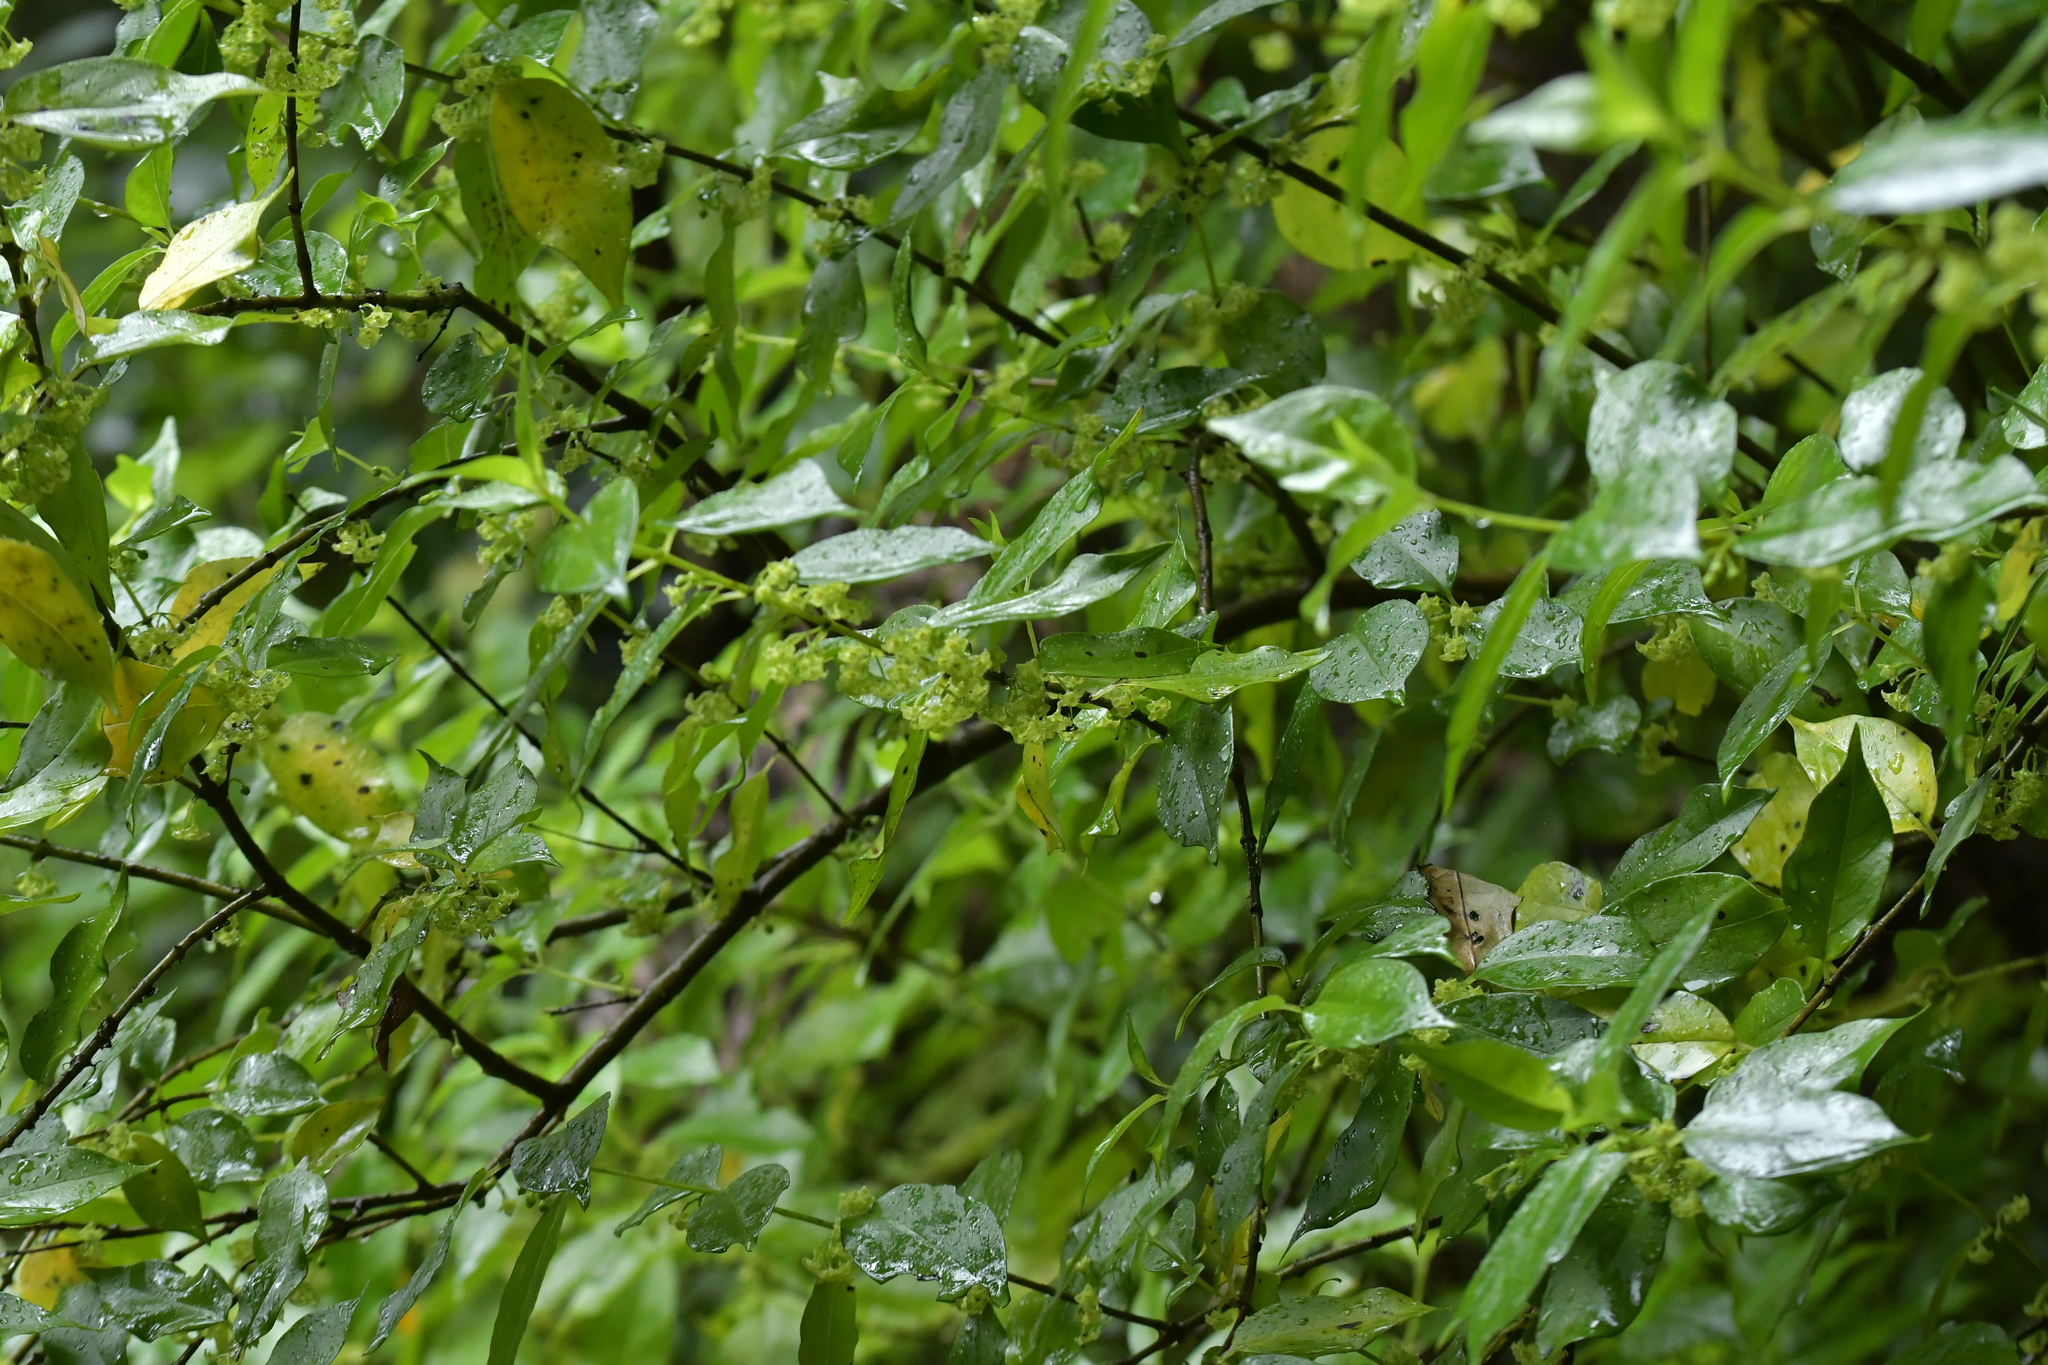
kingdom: Plantae
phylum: Tracheophyta
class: Magnoliopsida
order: Gentianales
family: Loganiaceae
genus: Geniostoma
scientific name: Geniostoma ligustrifolium
